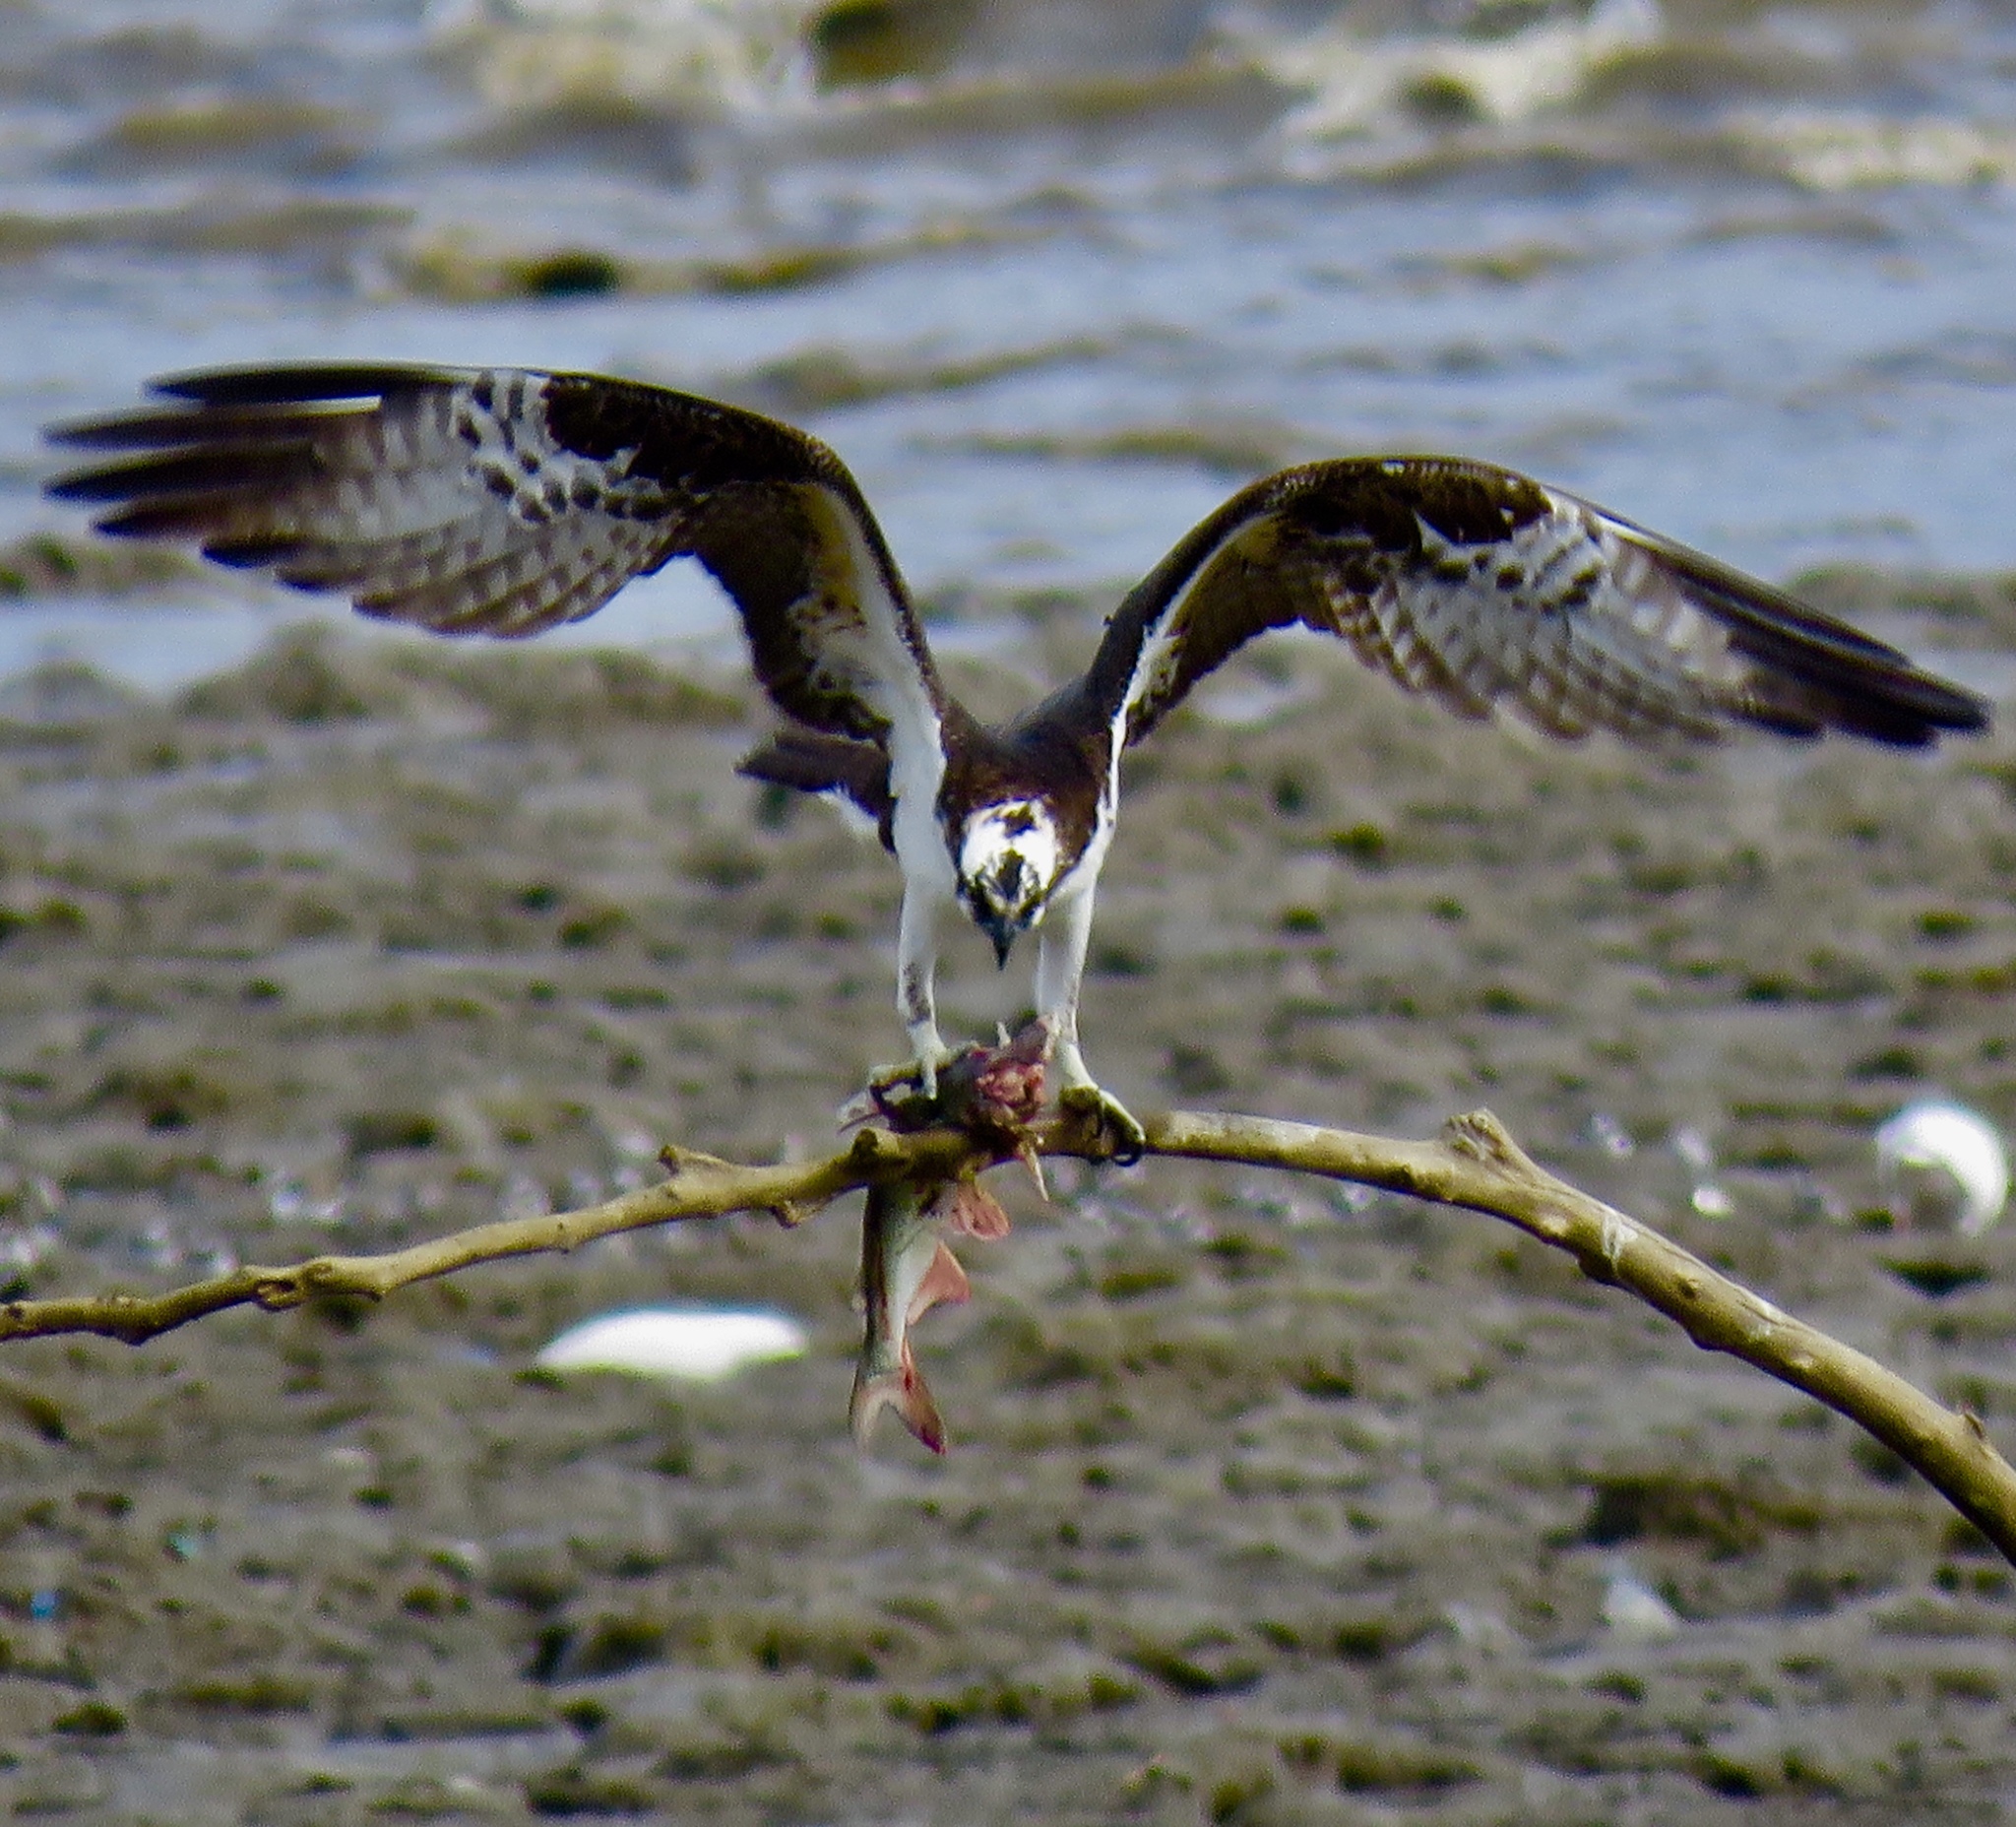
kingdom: Animalia
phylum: Chordata
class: Aves
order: Accipitriformes
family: Pandionidae
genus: Pandion
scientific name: Pandion haliaetus
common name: Osprey
